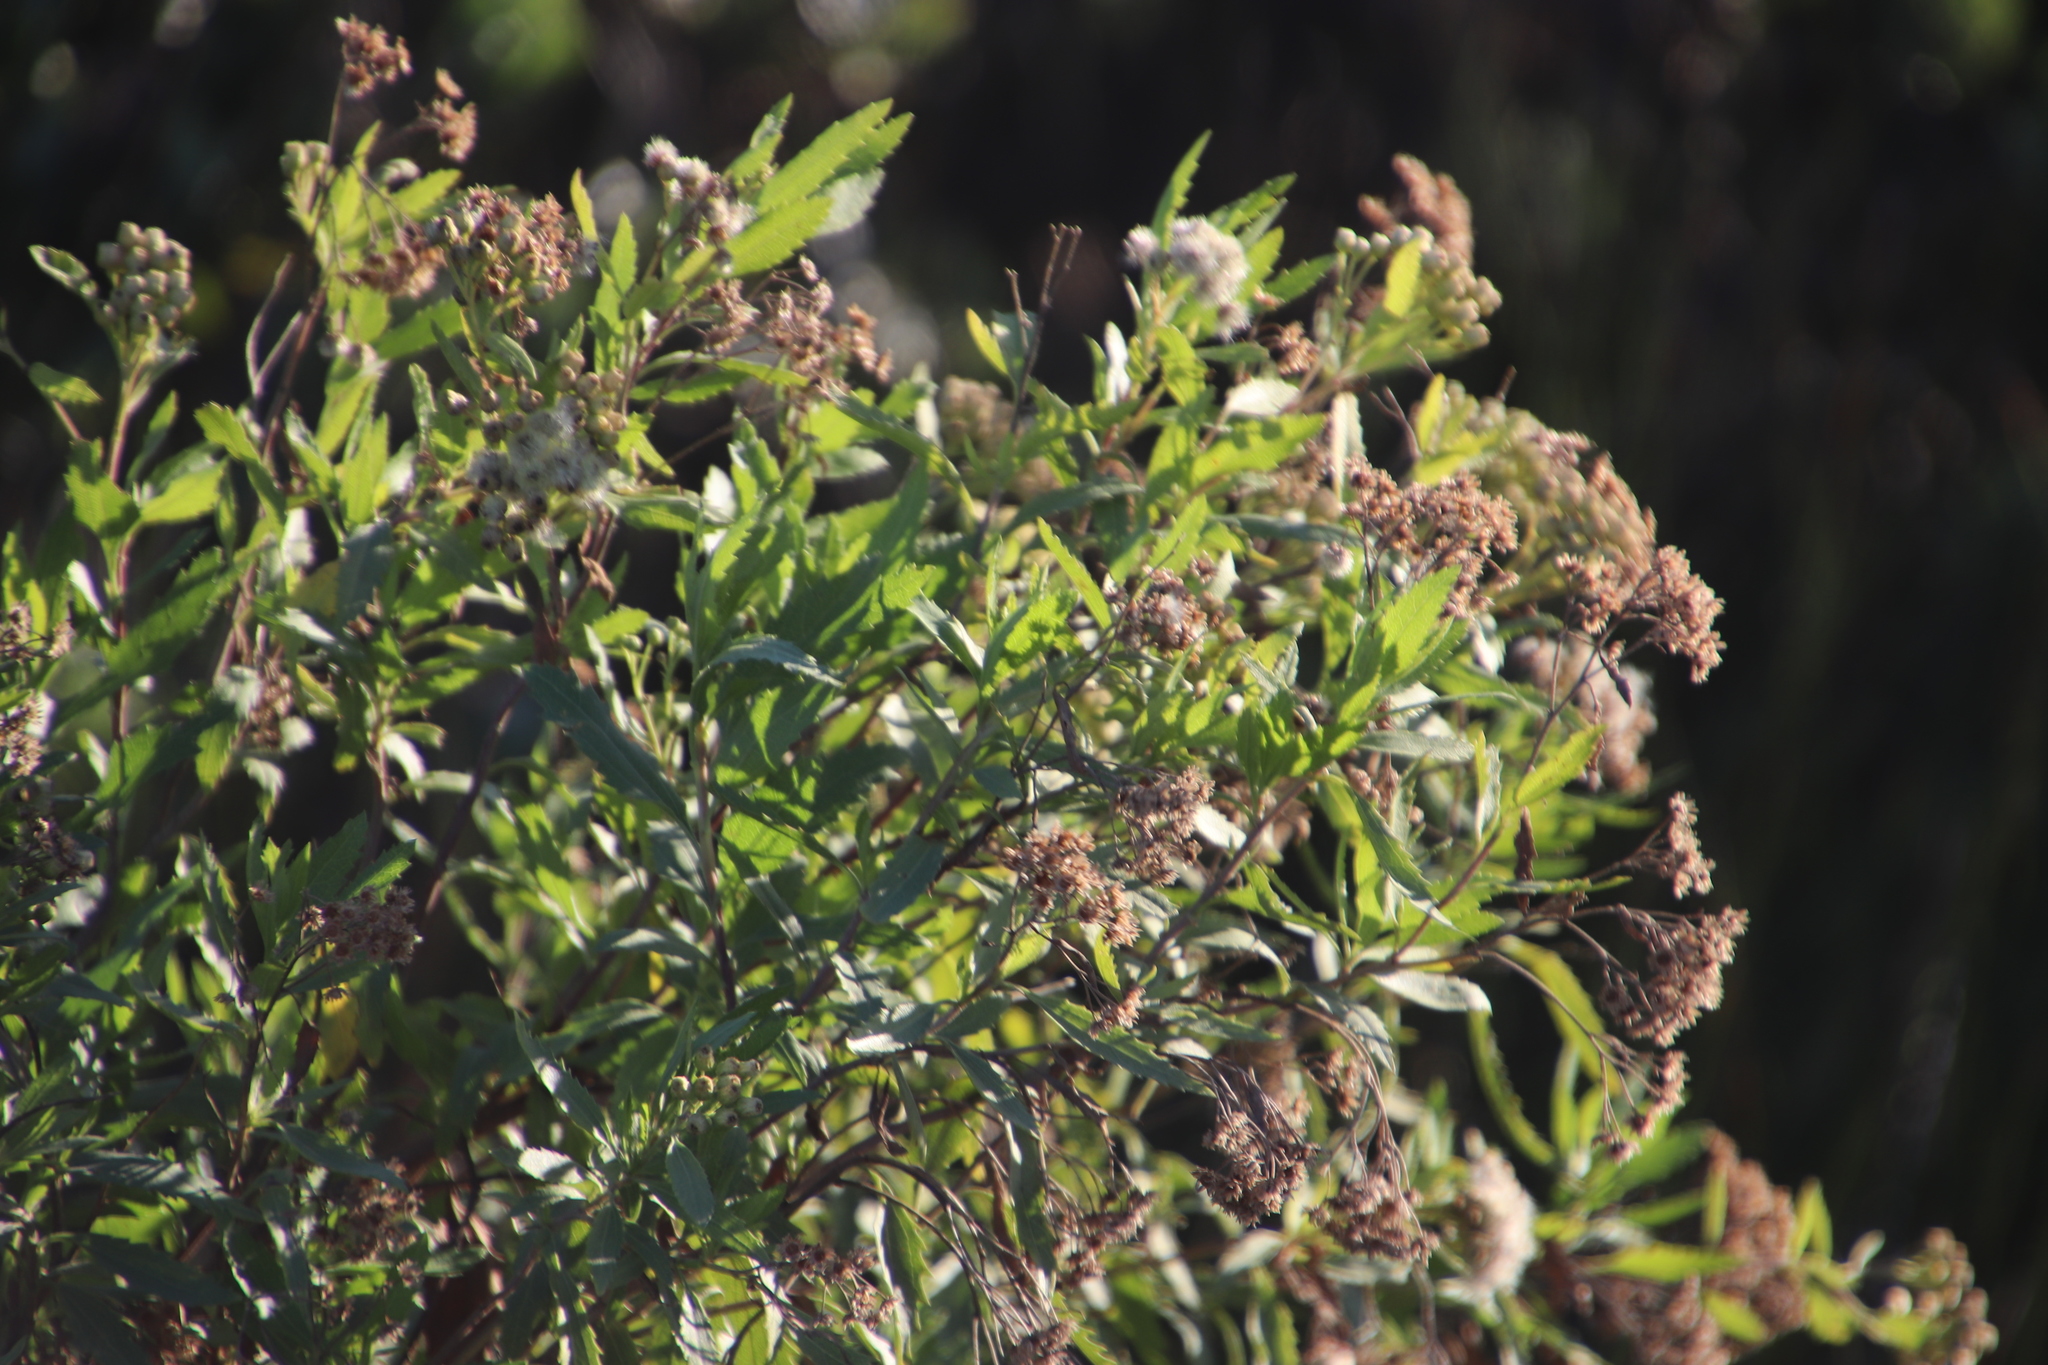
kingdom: Plantae
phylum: Tracheophyta
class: Magnoliopsida
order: Asterales
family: Asteraceae
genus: Nidorella
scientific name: Nidorella ivifolia
